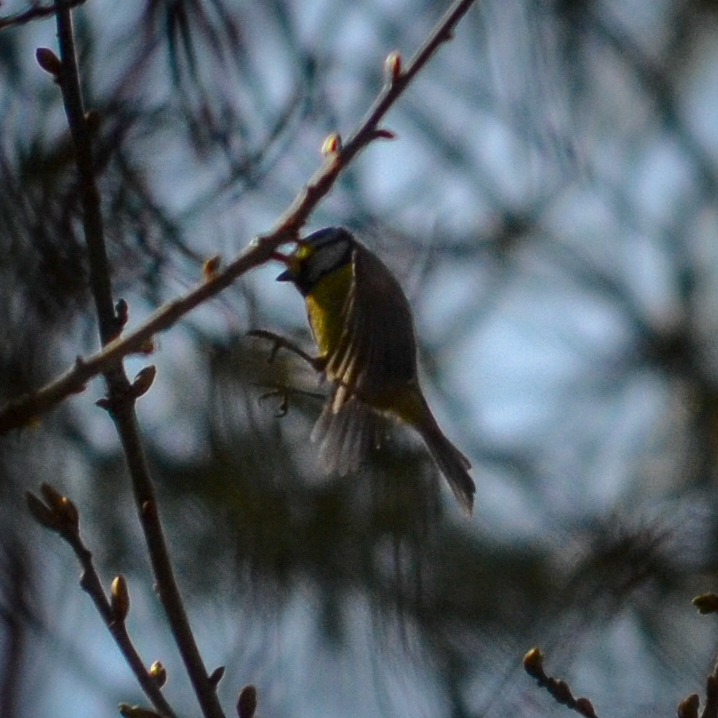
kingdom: Animalia
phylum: Chordata
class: Aves
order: Passeriformes
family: Paridae
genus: Cyanistes
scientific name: Cyanistes caeruleus
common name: Eurasian blue tit
